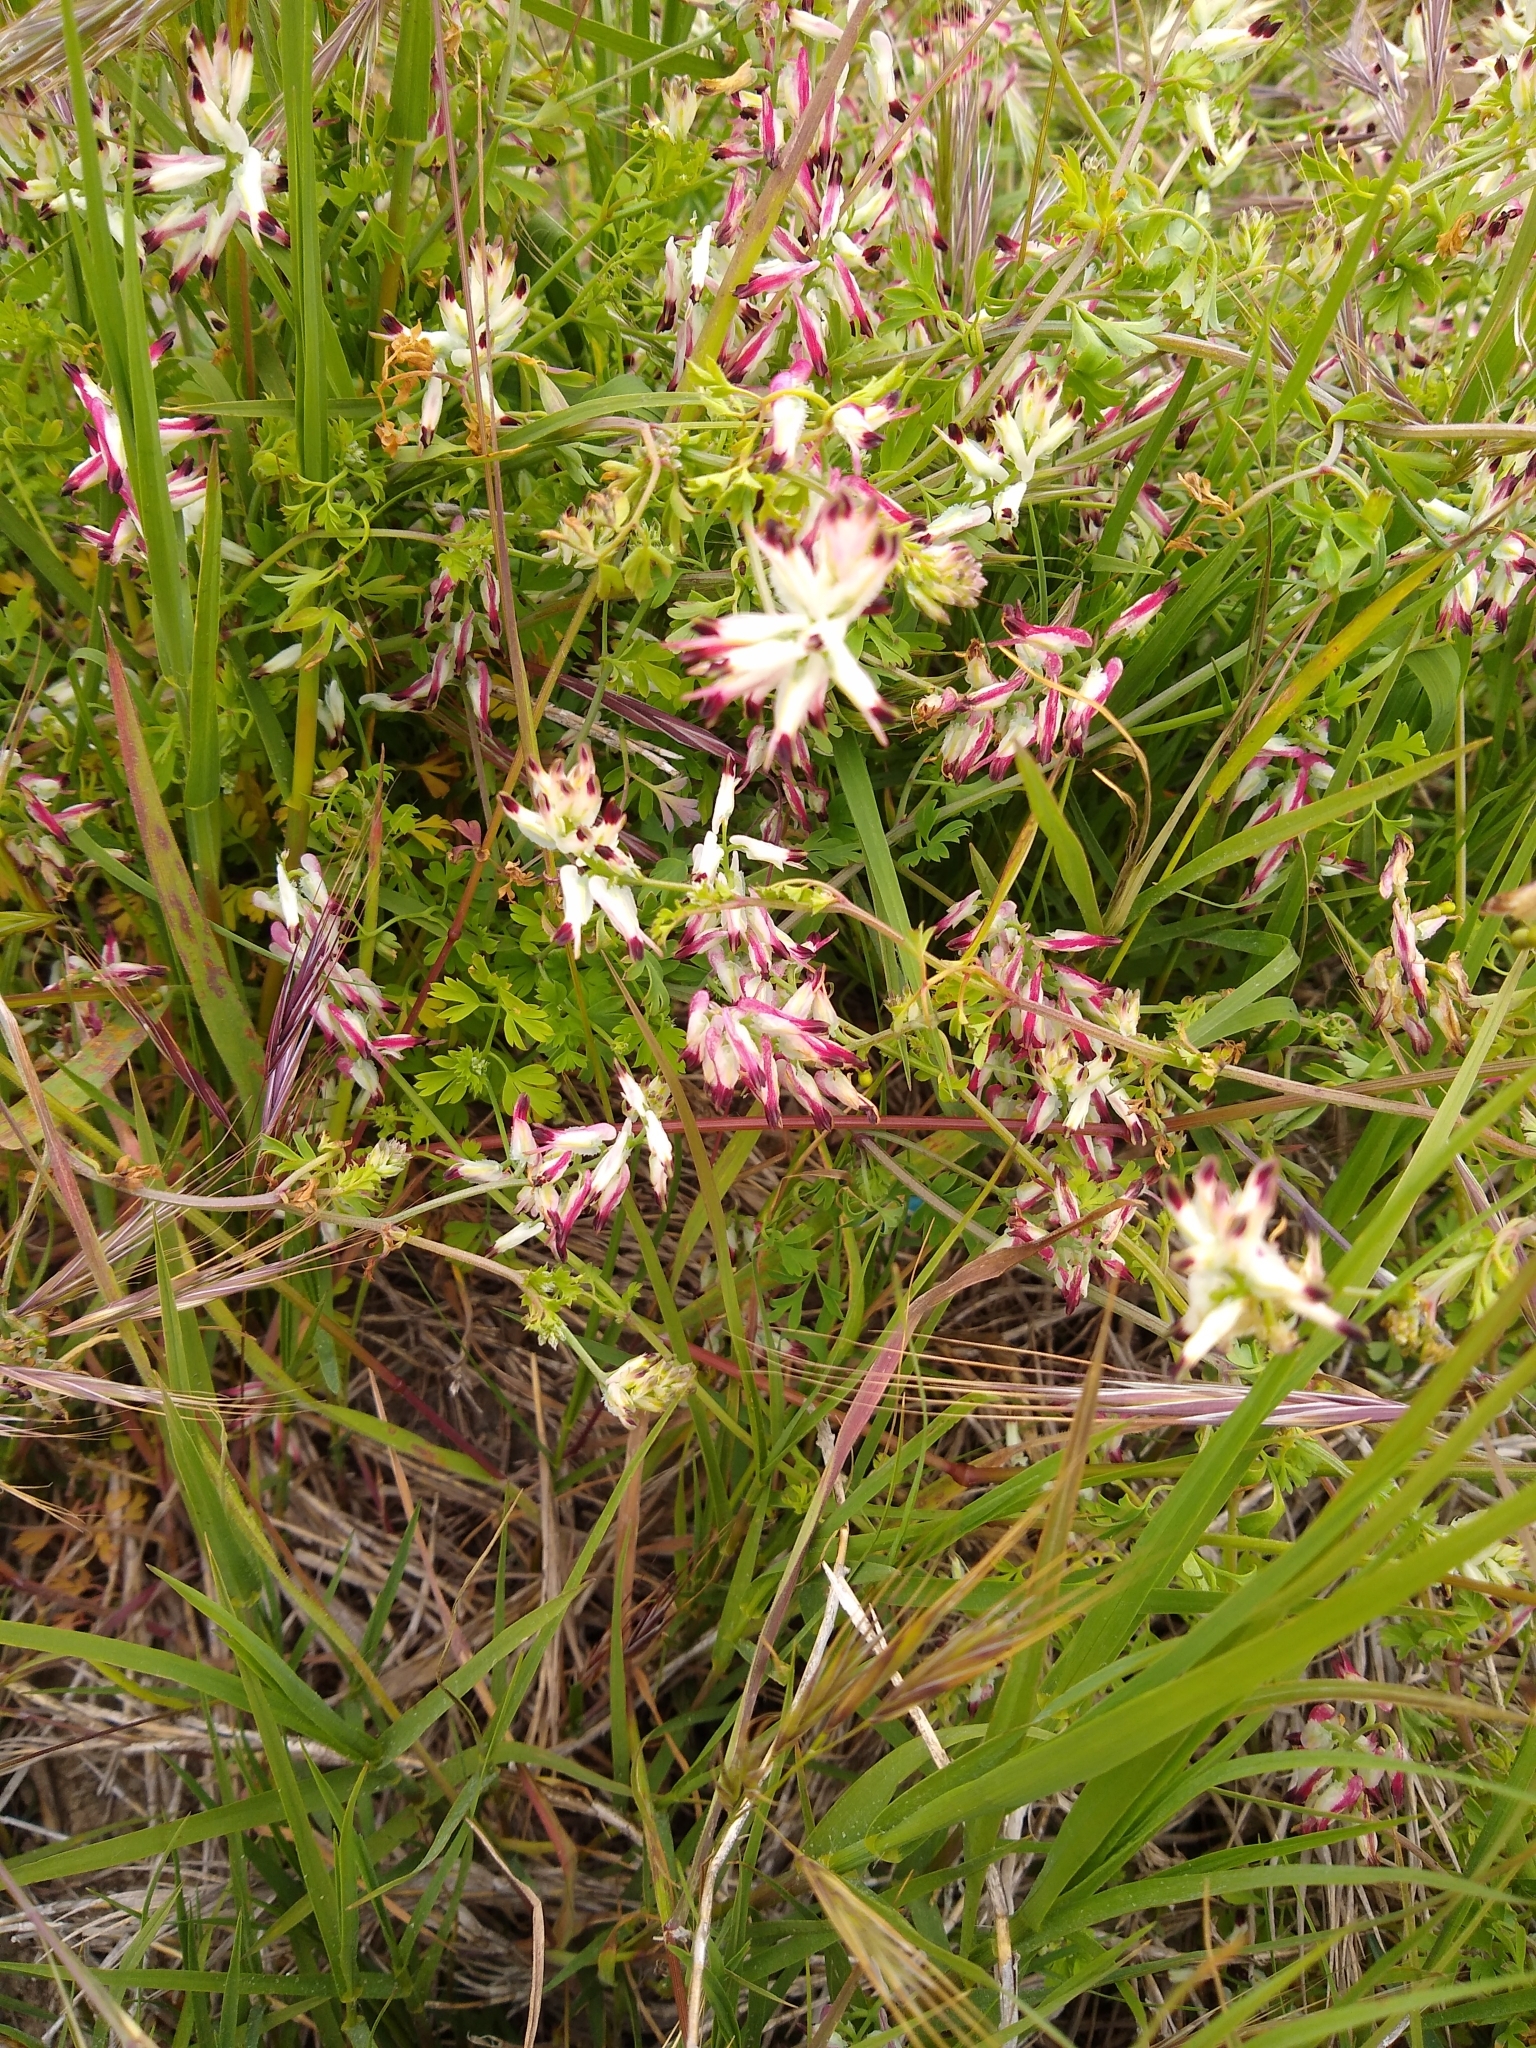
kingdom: Plantae
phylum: Tracheophyta
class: Magnoliopsida
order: Ranunculales
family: Papaveraceae
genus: Fumaria
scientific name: Fumaria capreolata
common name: White ramping-fumitory
